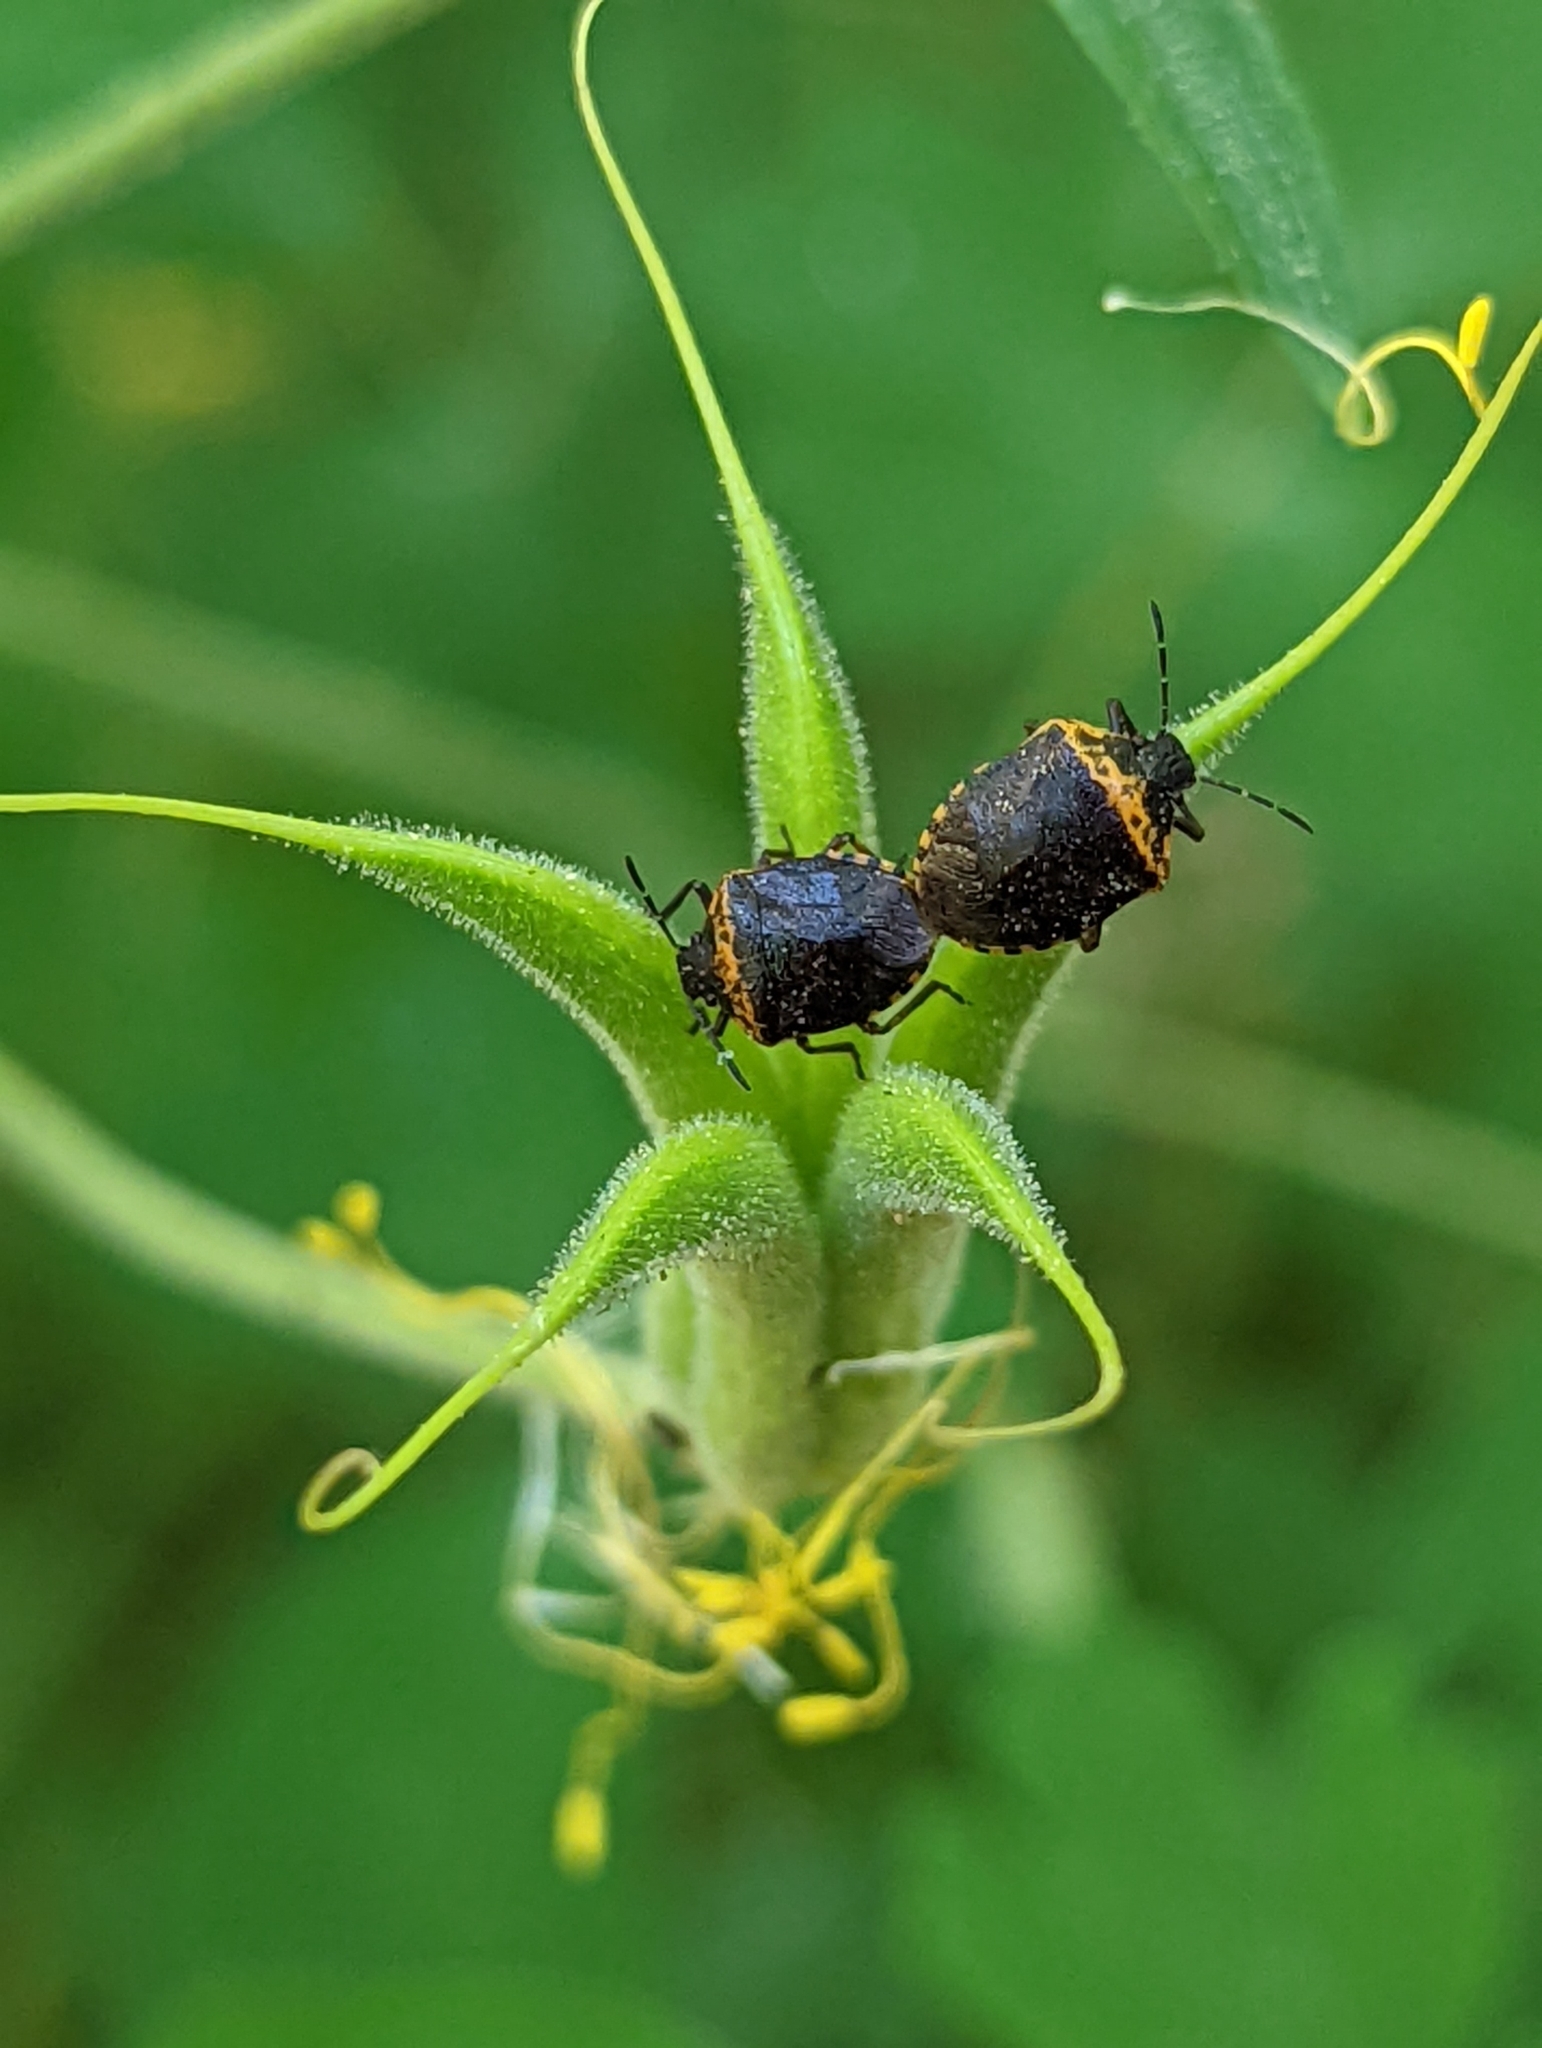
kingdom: Animalia
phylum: Arthropoda
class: Insecta
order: Hemiptera
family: Pentatomidae
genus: Cosmopepla
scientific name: Cosmopepla uhleri
